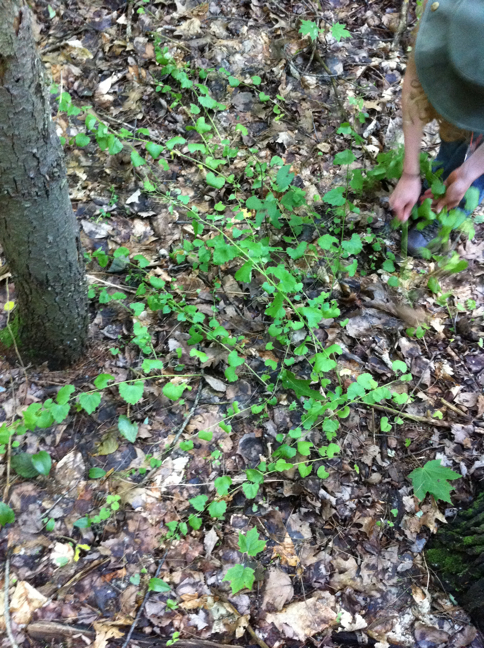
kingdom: Plantae
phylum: Tracheophyta
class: Magnoliopsida
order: Brassicales
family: Brassicaceae
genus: Alliaria
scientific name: Alliaria petiolata
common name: Garlic mustard
